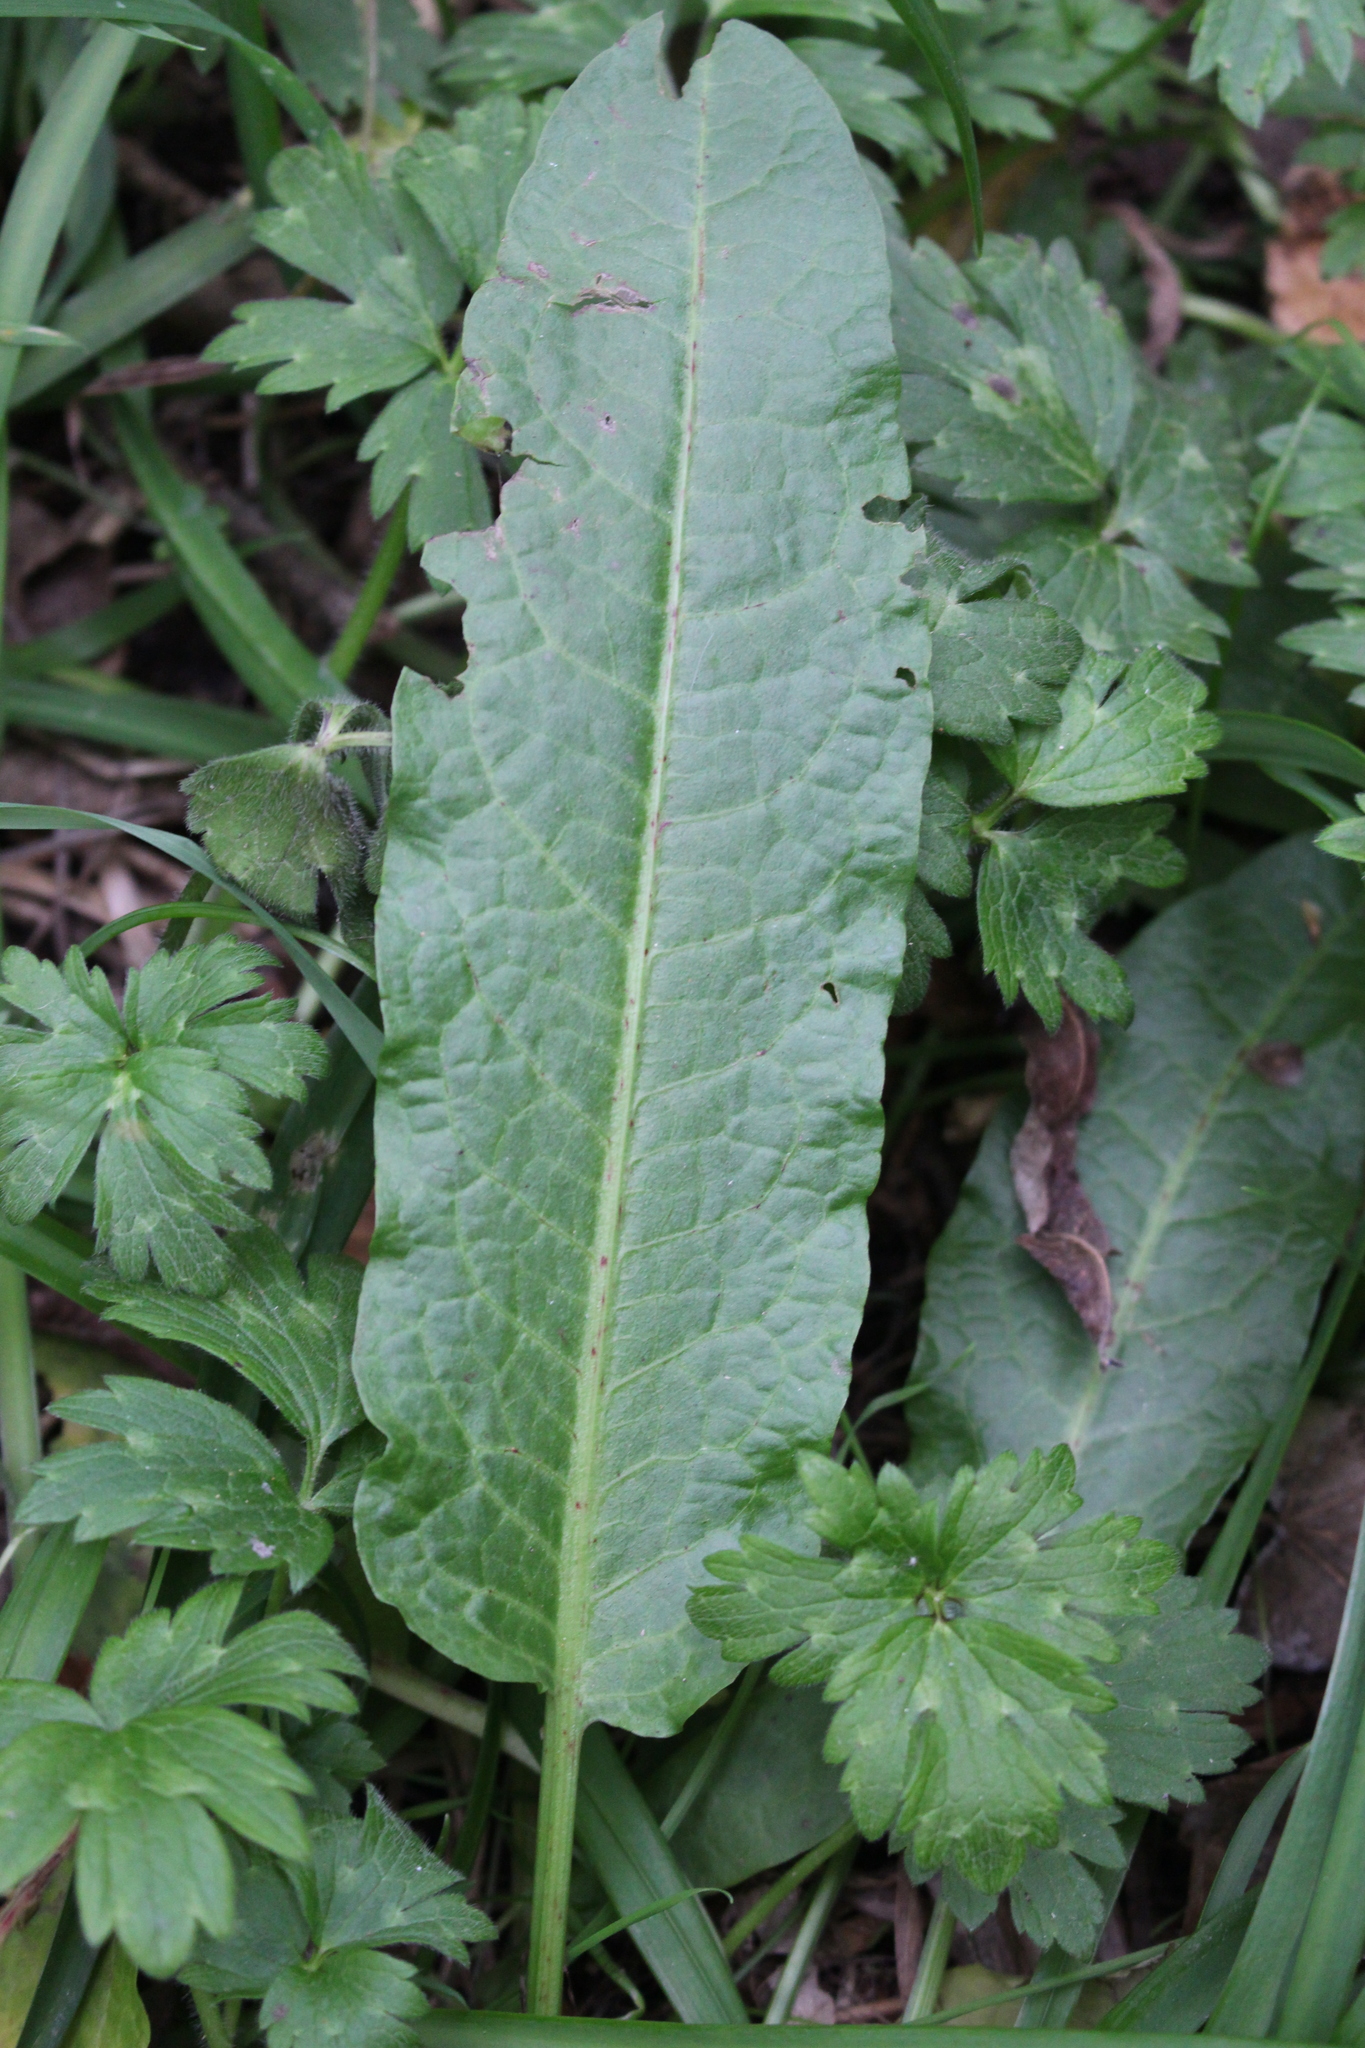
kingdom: Plantae
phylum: Tracheophyta
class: Magnoliopsida
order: Caryophyllales
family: Polygonaceae
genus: Rumex
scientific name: Rumex conglomeratus
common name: Clustered dock
